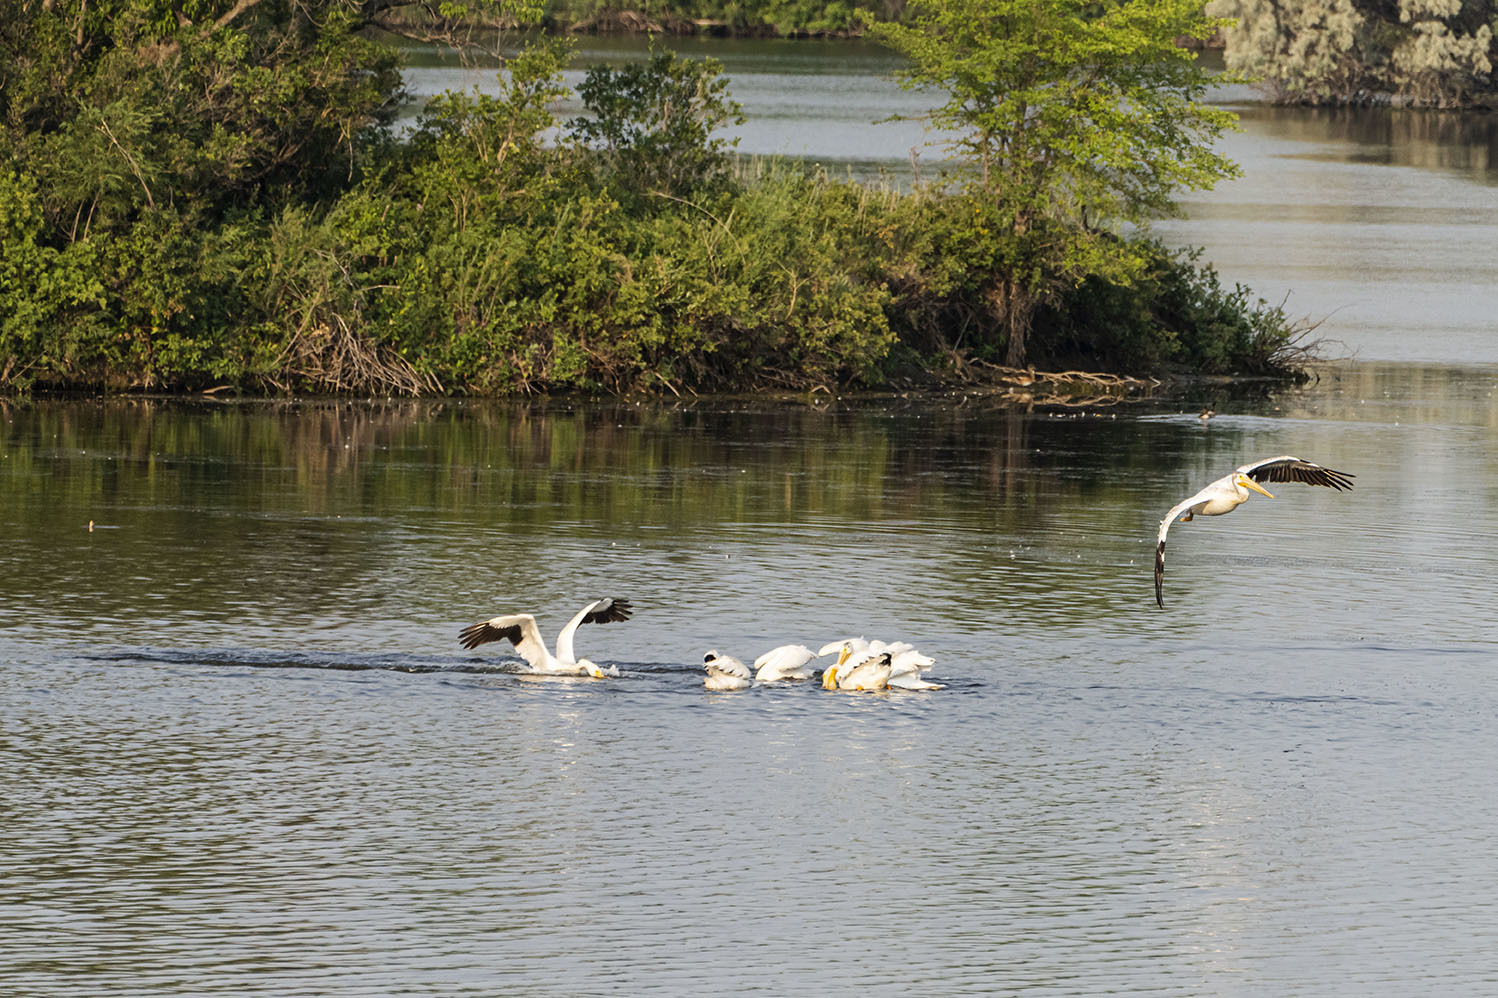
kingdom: Animalia
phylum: Chordata
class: Aves
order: Pelecaniformes
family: Pelecanidae
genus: Pelecanus
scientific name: Pelecanus erythrorhynchos
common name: American white pelican
